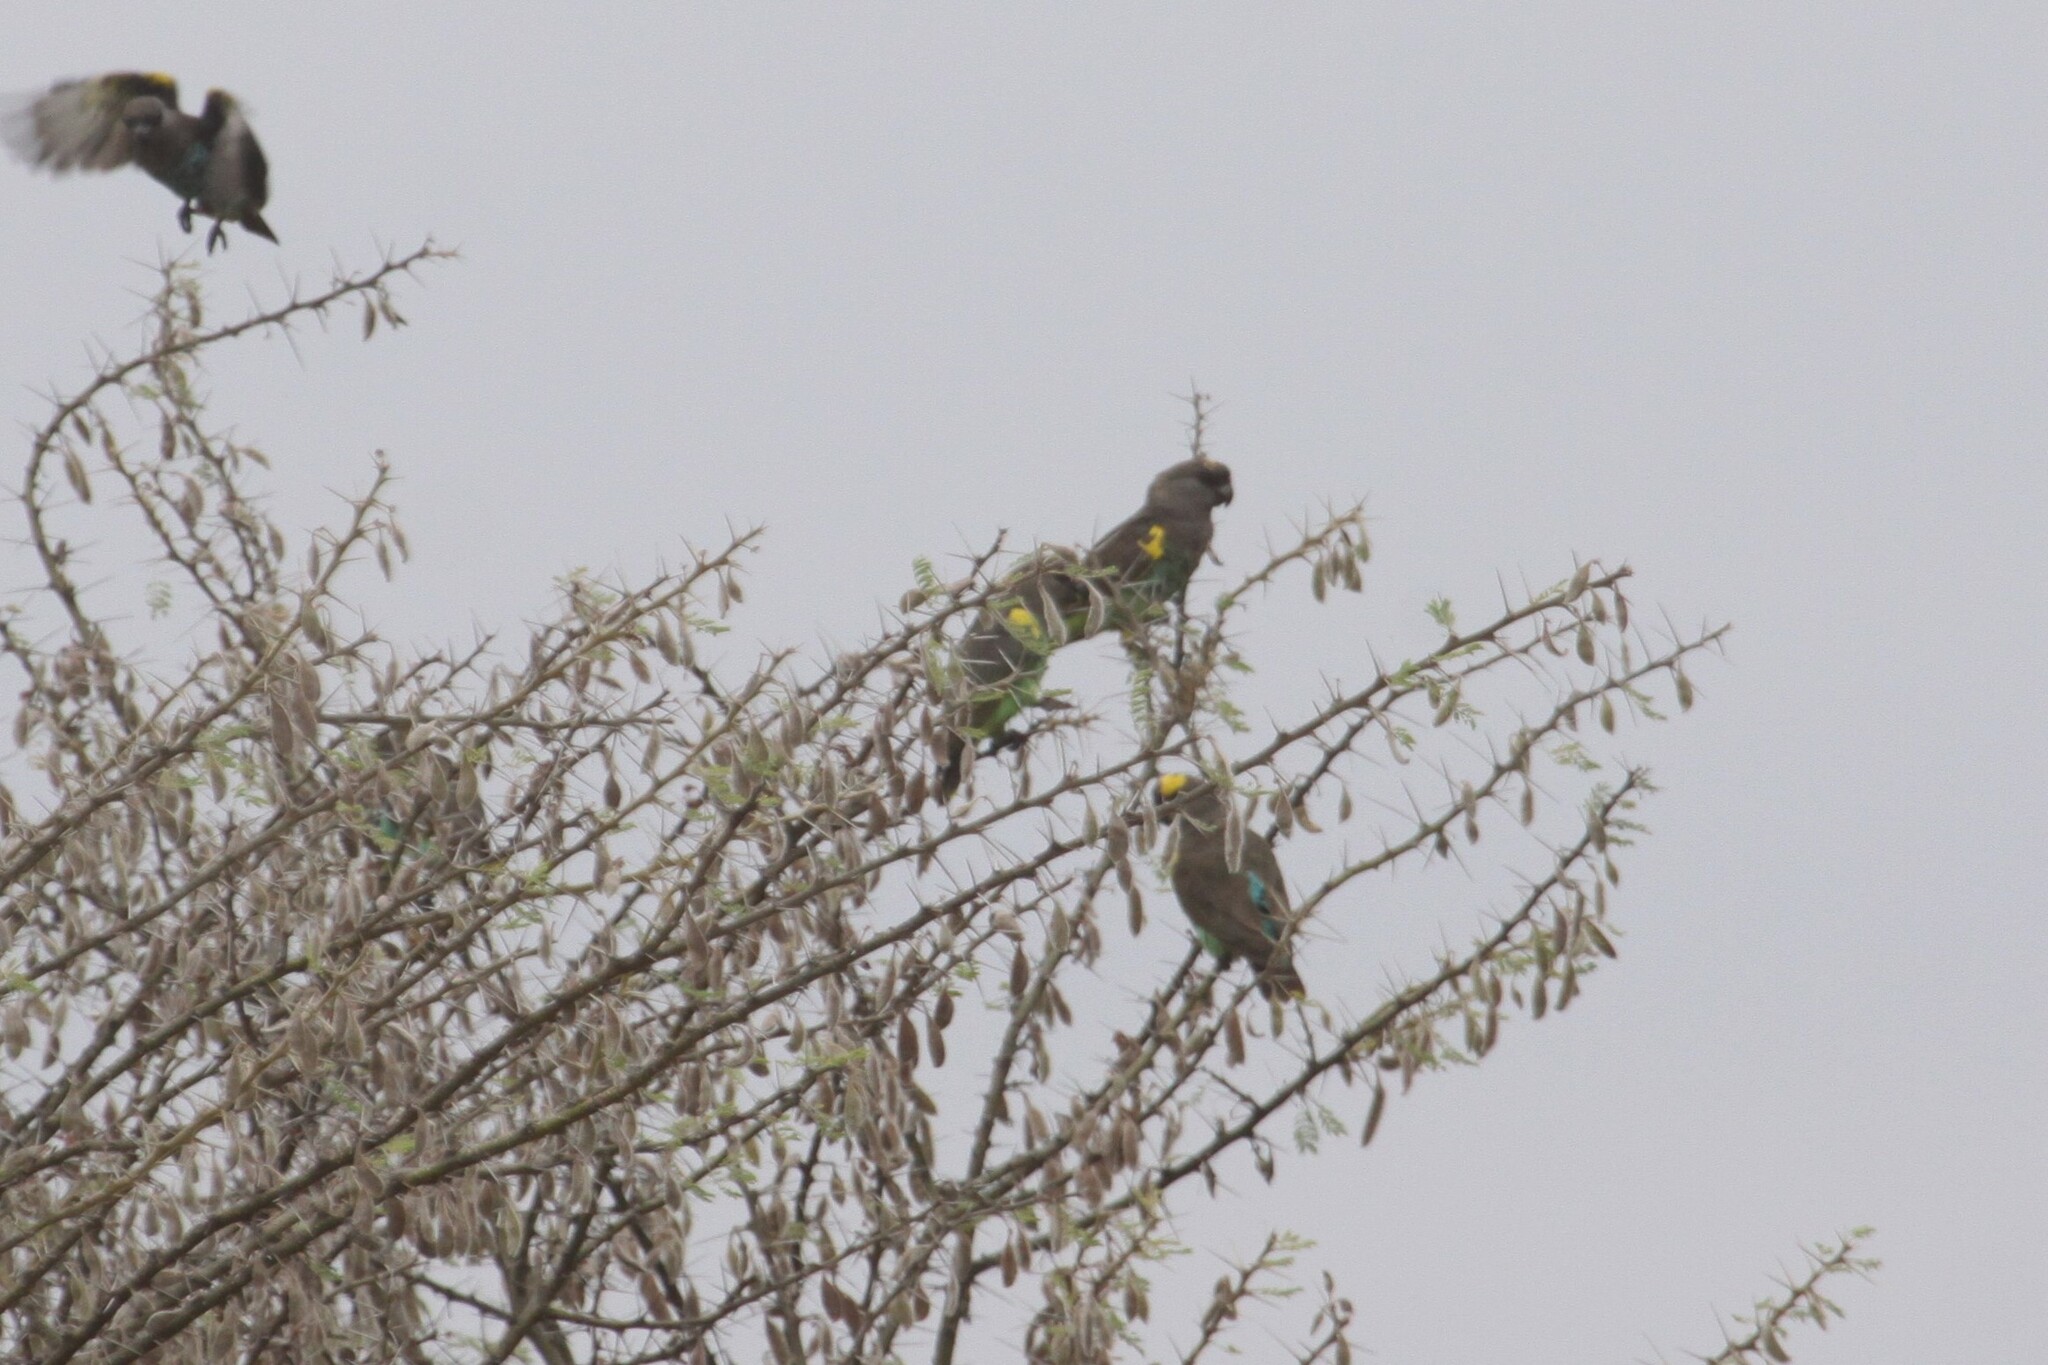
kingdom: Animalia
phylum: Chordata
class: Aves
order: Psittaciformes
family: Psittacidae
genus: Poicephalus
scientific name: Poicephalus meyeri
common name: Meyer's parrot
